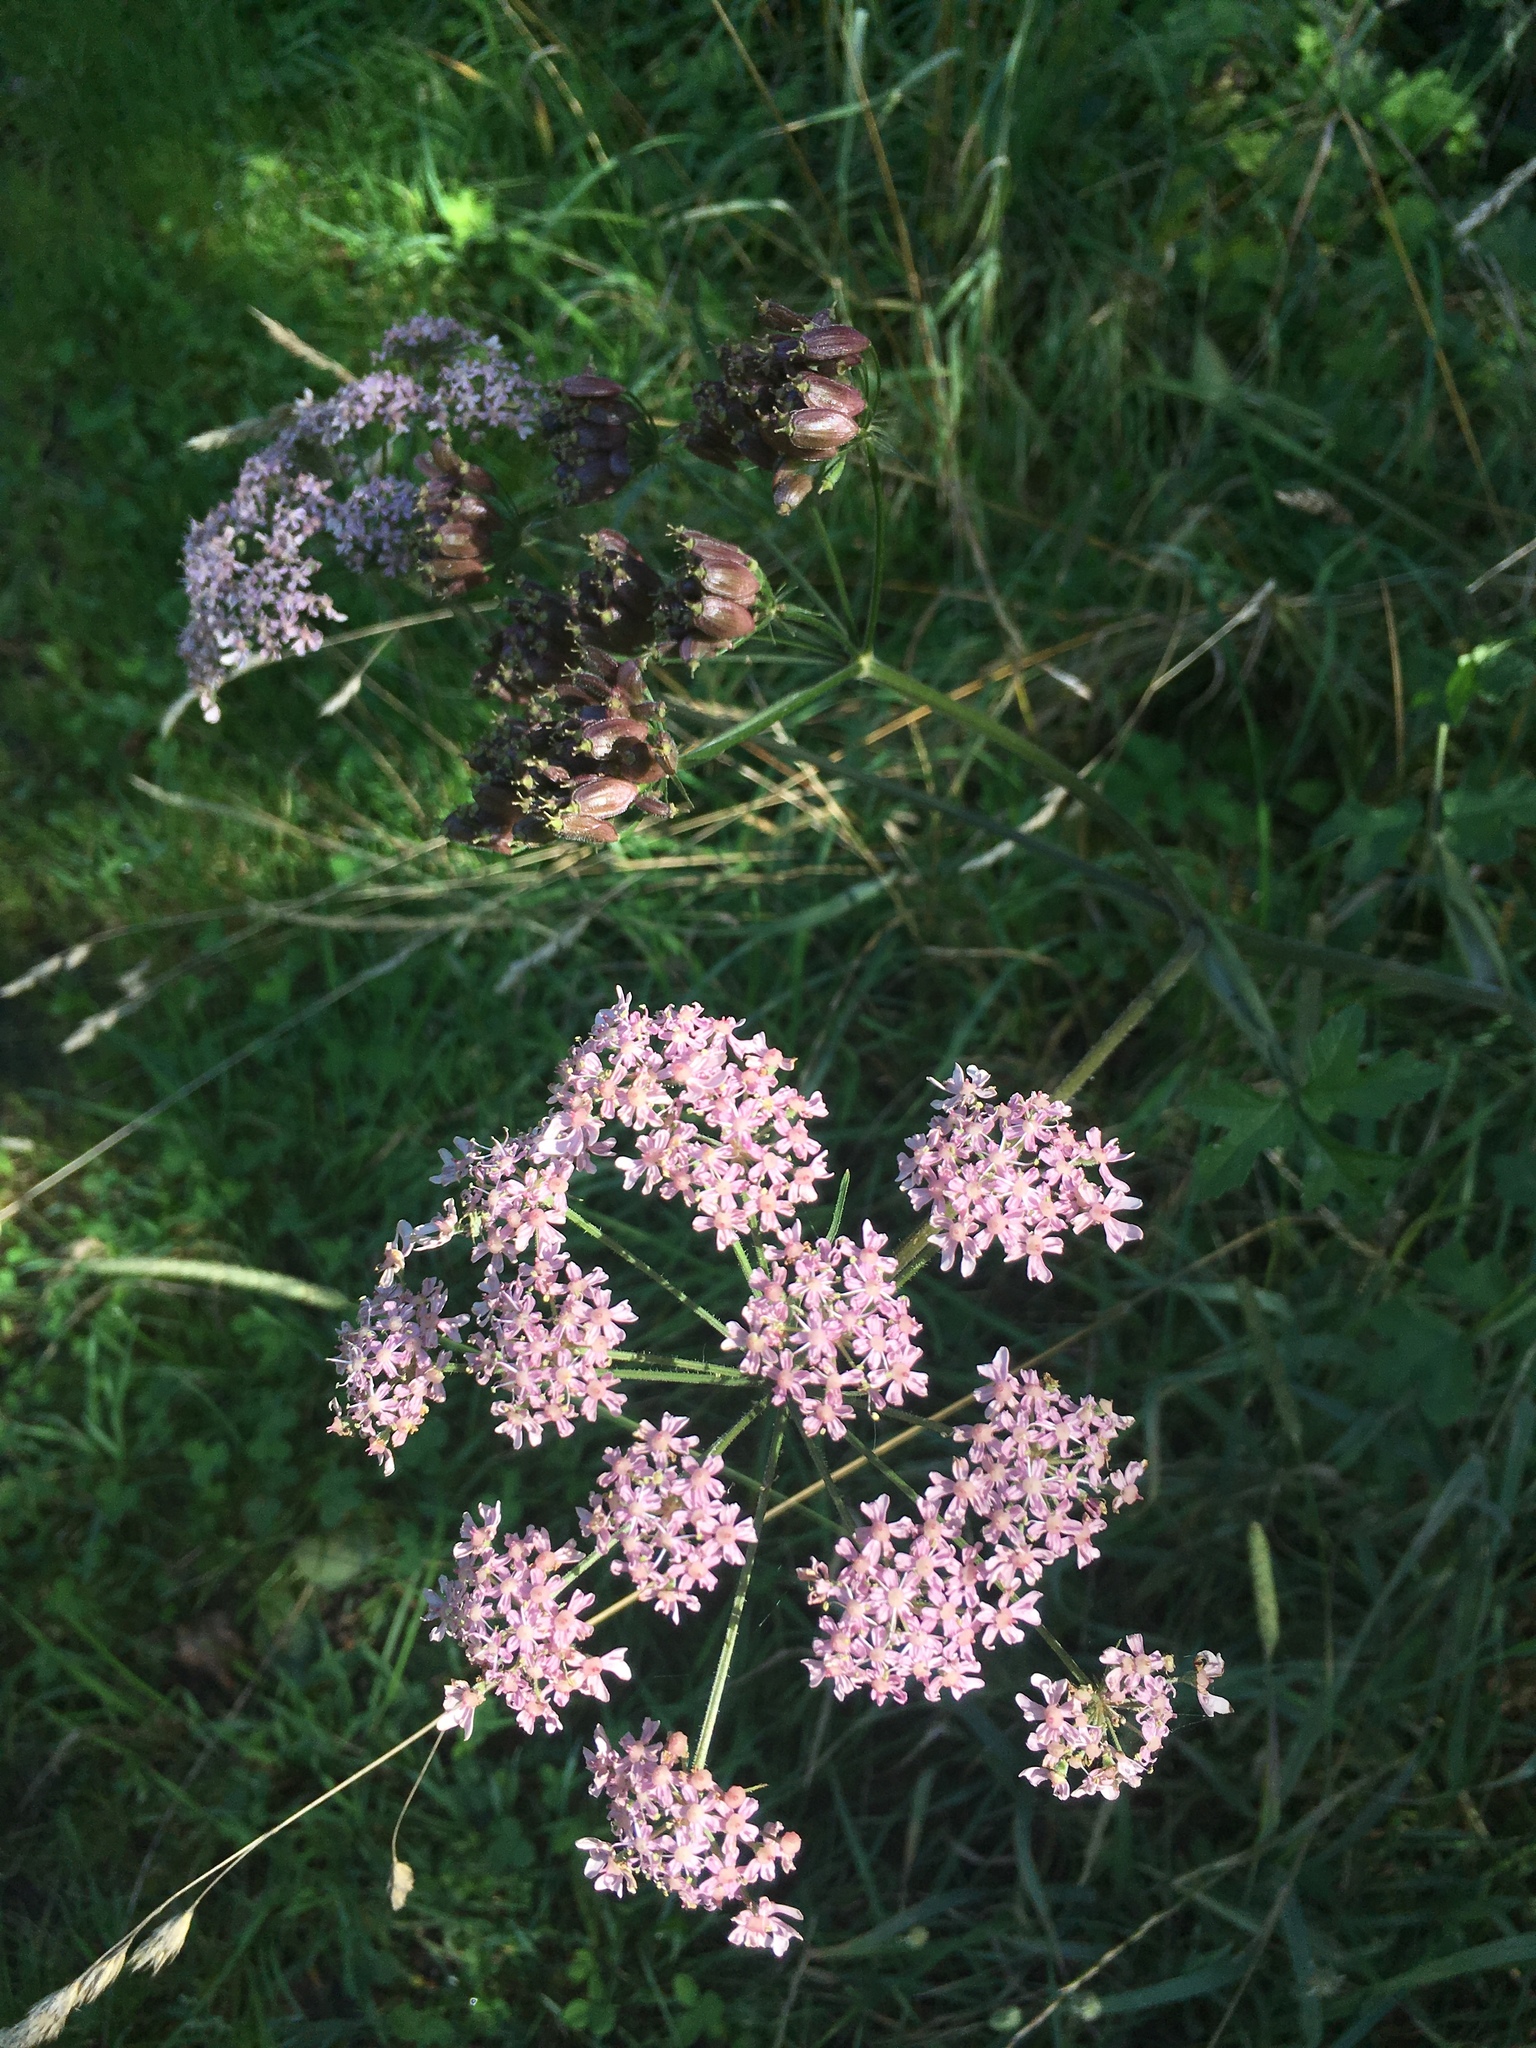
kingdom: Plantae
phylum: Tracheophyta
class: Magnoliopsida
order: Apiales
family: Apiaceae
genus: Heracleum
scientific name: Heracleum sphondylium
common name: Hogweed
